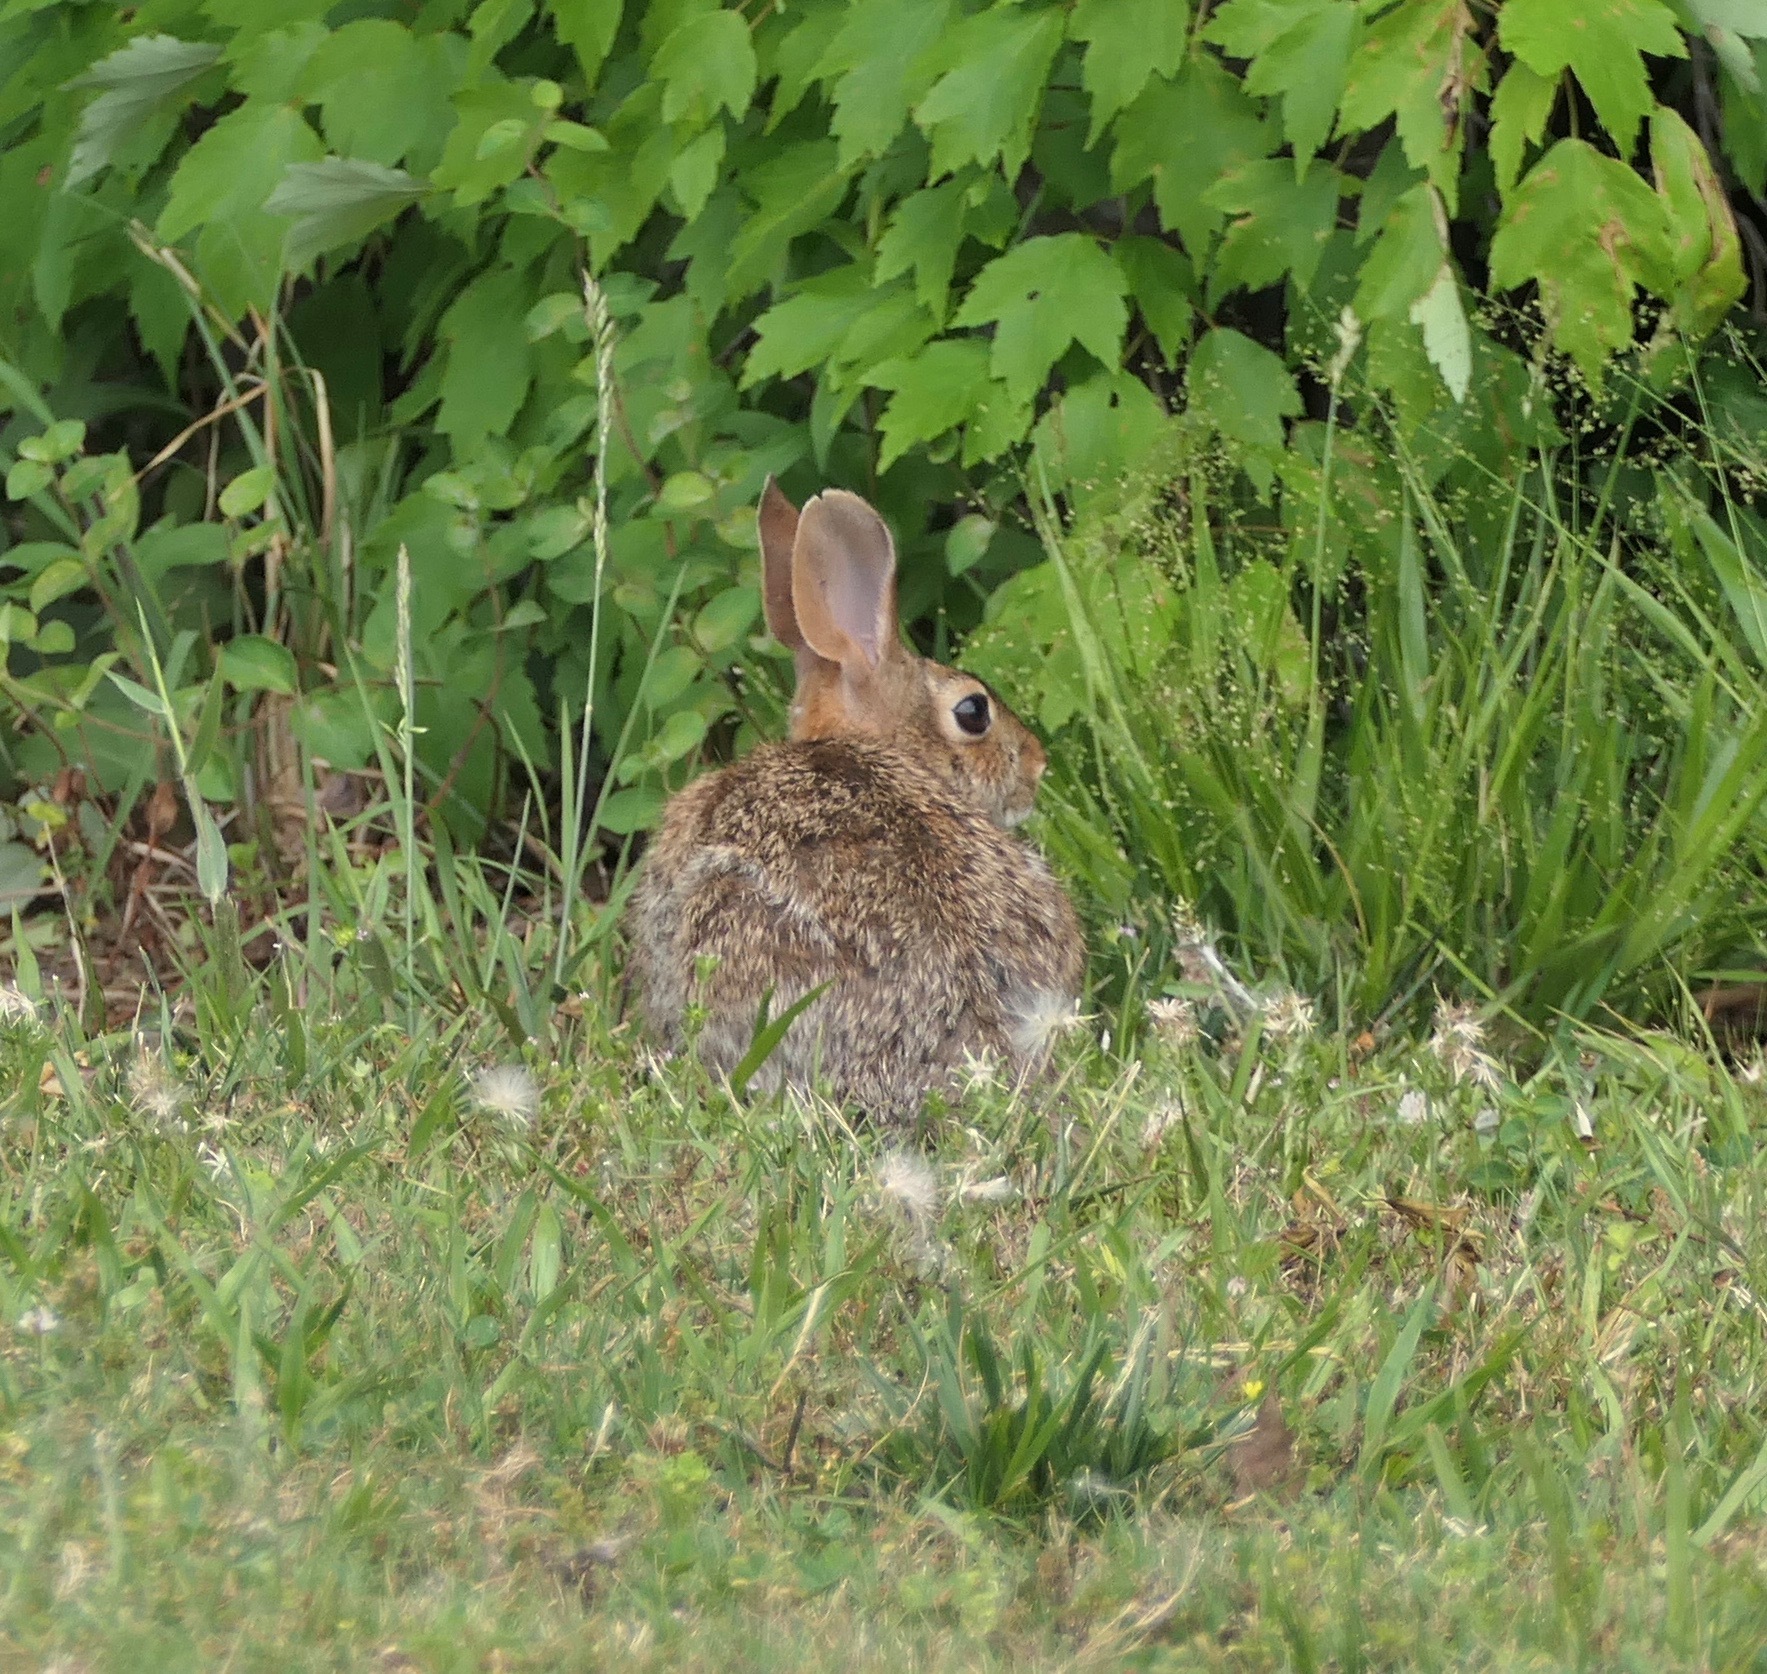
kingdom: Animalia
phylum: Chordata
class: Mammalia
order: Lagomorpha
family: Leporidae
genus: Sylvilagus
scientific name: Sylvilagus floridanus
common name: Eastern cottontail
